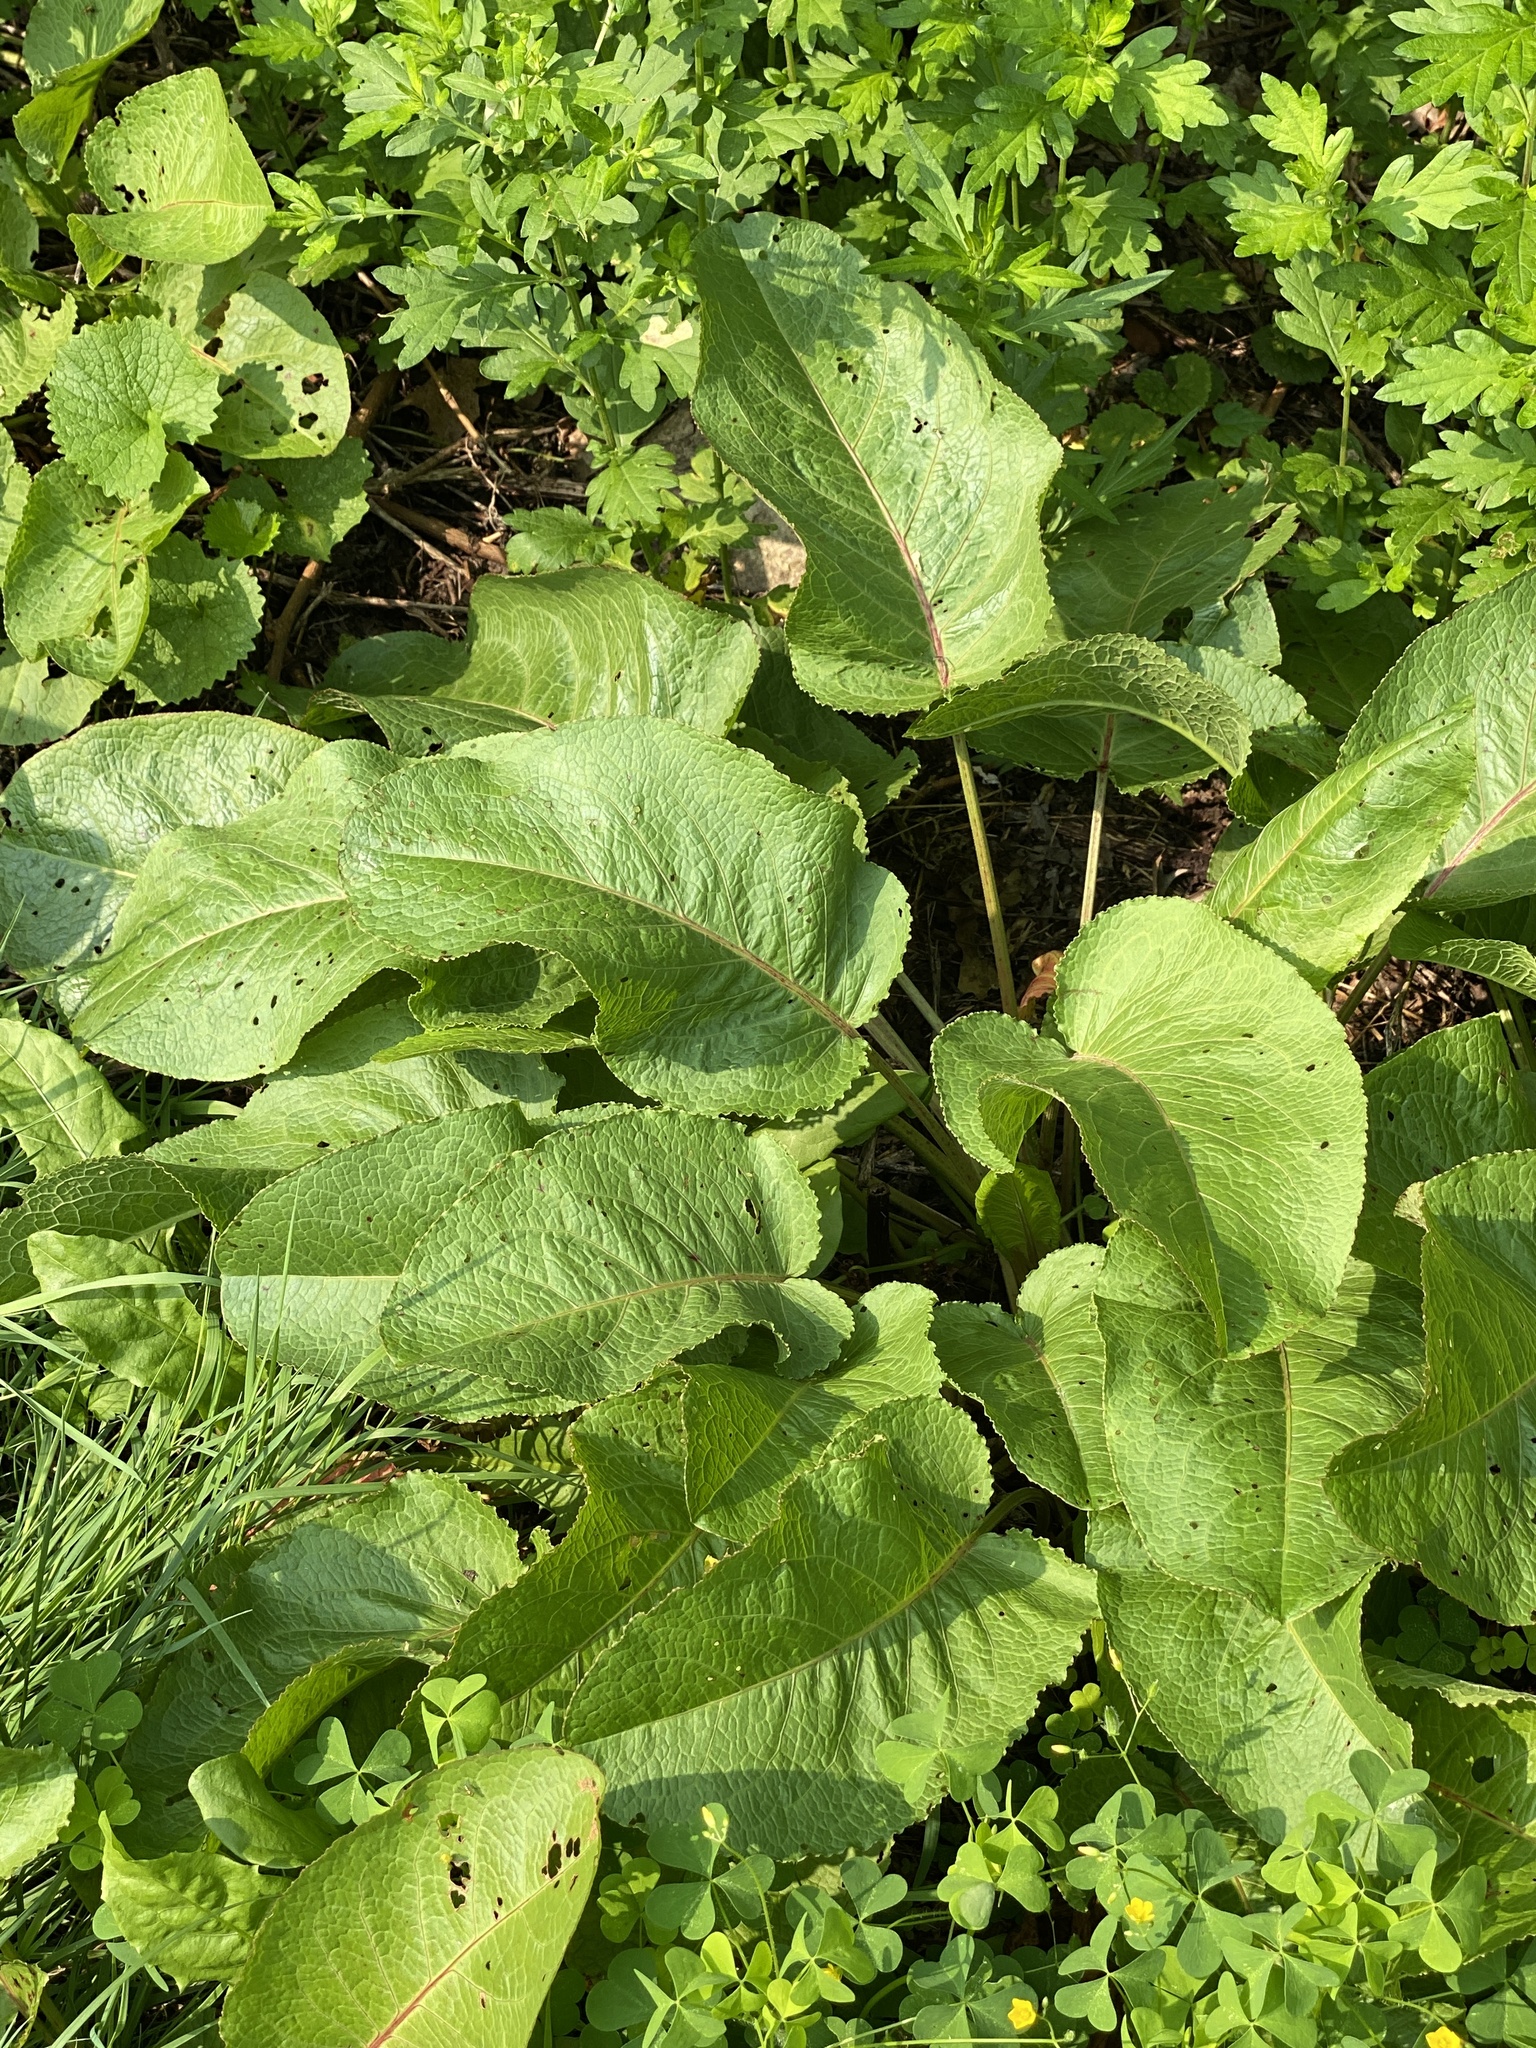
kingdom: Plantae
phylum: Tracheophyta
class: Magnoliopsida
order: Caryophyllales
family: Polygonaceae
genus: Rumex
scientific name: Rumex obtusifolius
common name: Bitter dock
